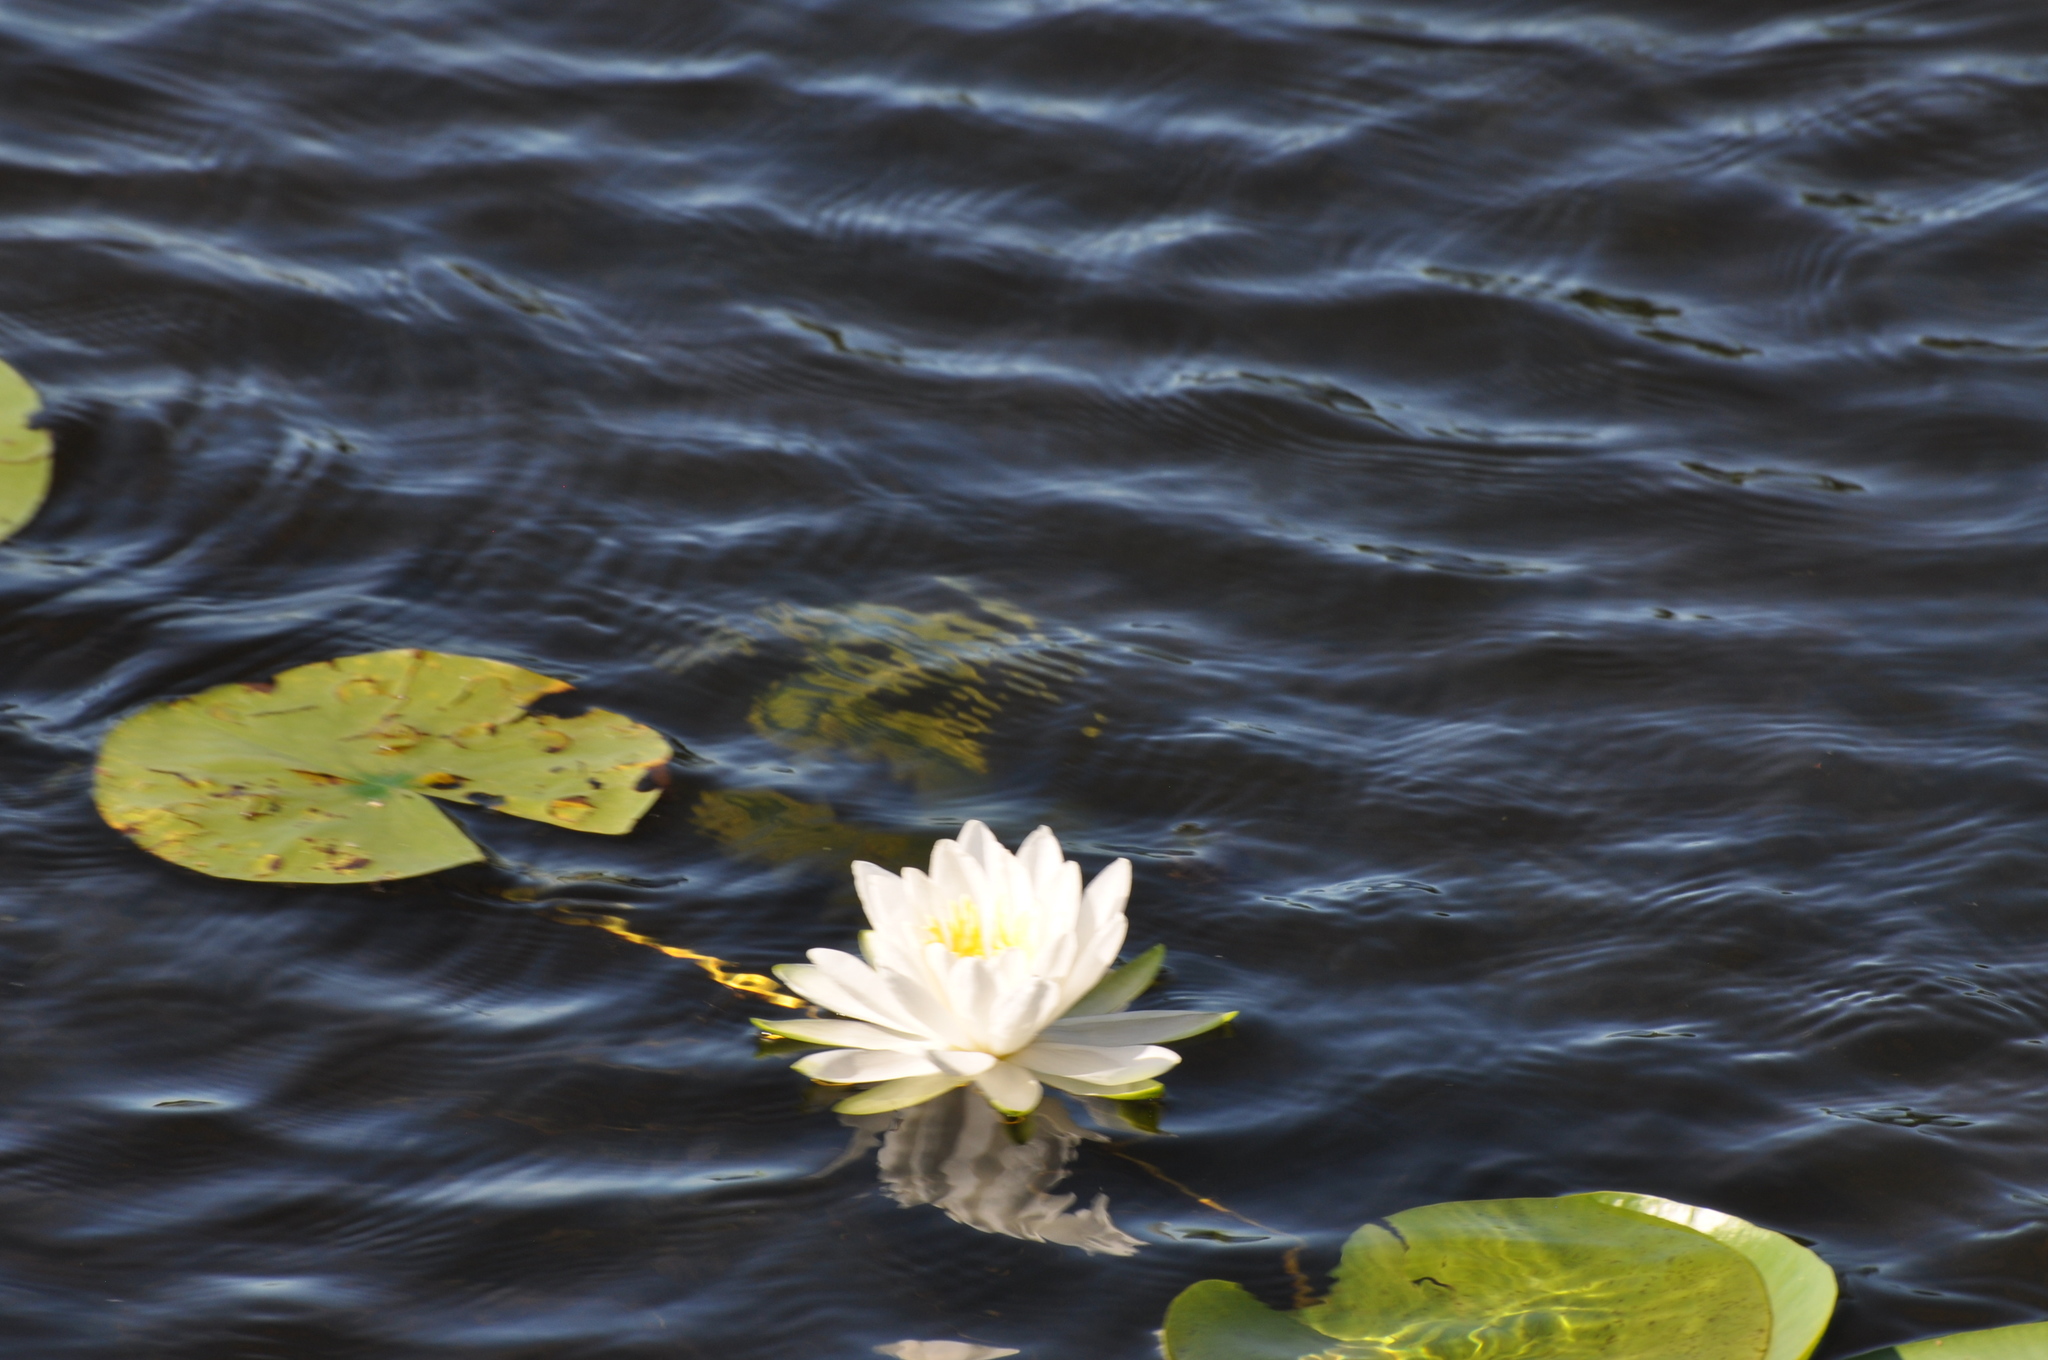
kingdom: Plantae
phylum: Tracheophyta
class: Magnoliopsida
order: Nymphaeales
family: Nymphaeaceae
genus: Nymphaea
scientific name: Nymphaea odorata
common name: Fragrant water-lily
